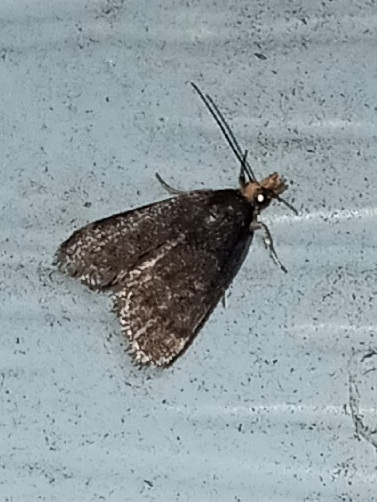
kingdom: Animalia
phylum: Arthropoda
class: Insecta
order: Lepidoptera
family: Crambidae
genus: Pyrausta
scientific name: Pyrausta merrickalis
